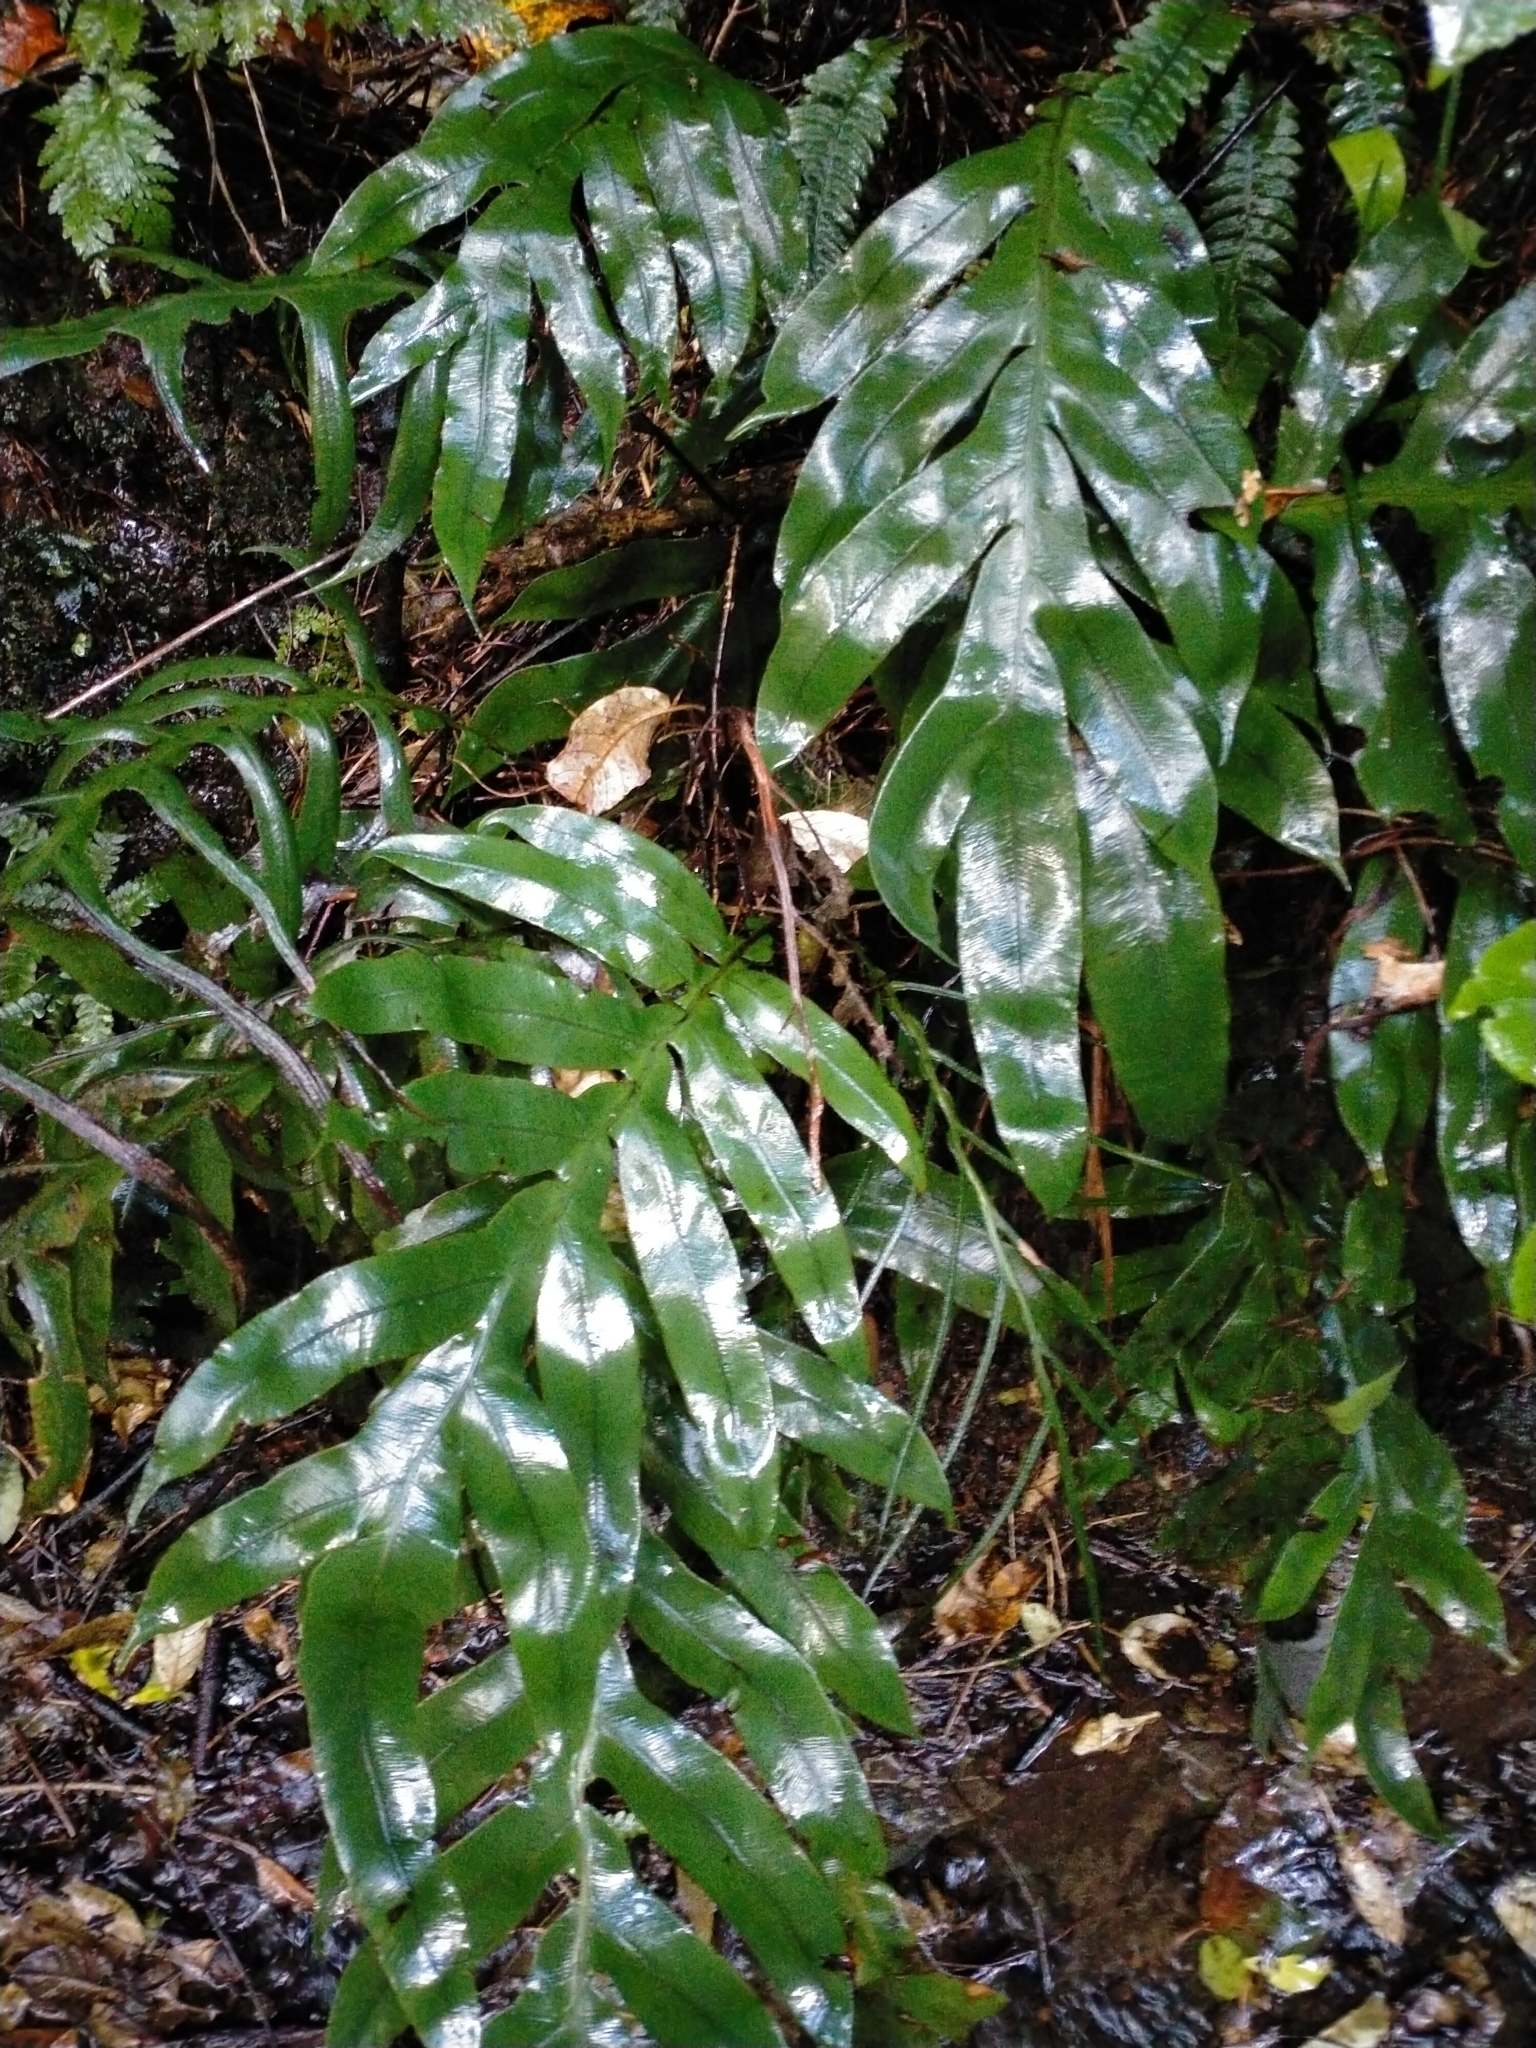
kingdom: Plantae
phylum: Tracheophyta
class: Polypodiopsida
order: Polypodiales
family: Blechnaceae
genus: Austroblechnum
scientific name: Austroblechnum colensoi
